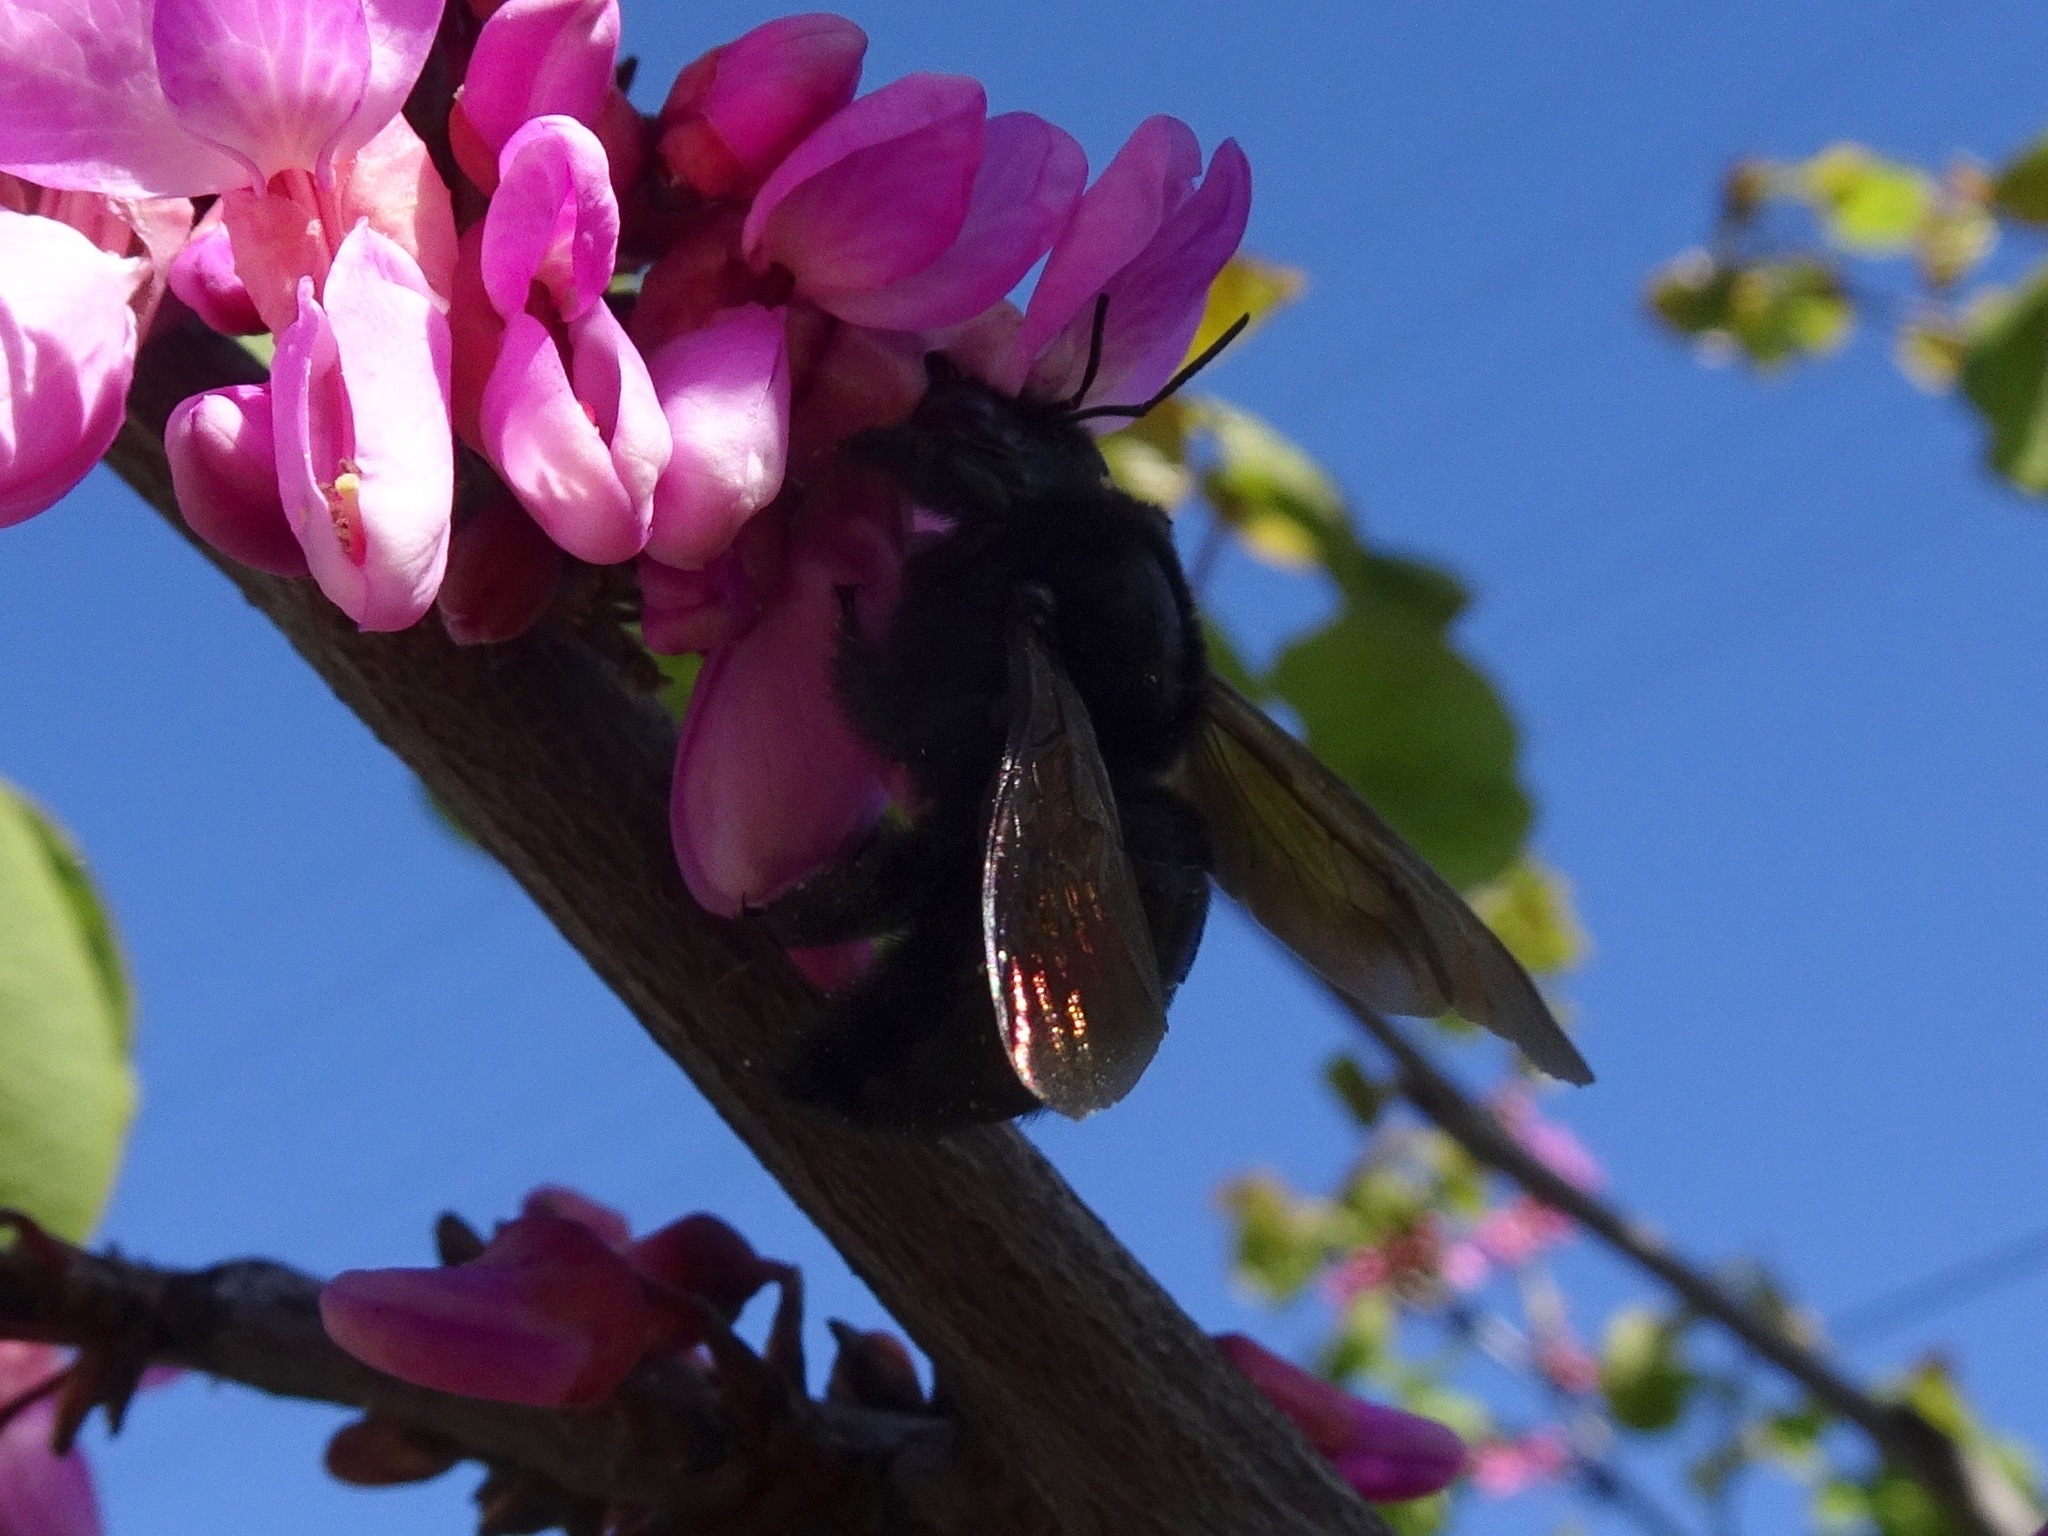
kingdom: Animalia
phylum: Arthropoda
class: Insecta
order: Hymenoptera
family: Apidae
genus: Xylocopa
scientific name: Xylocopa sonorina
